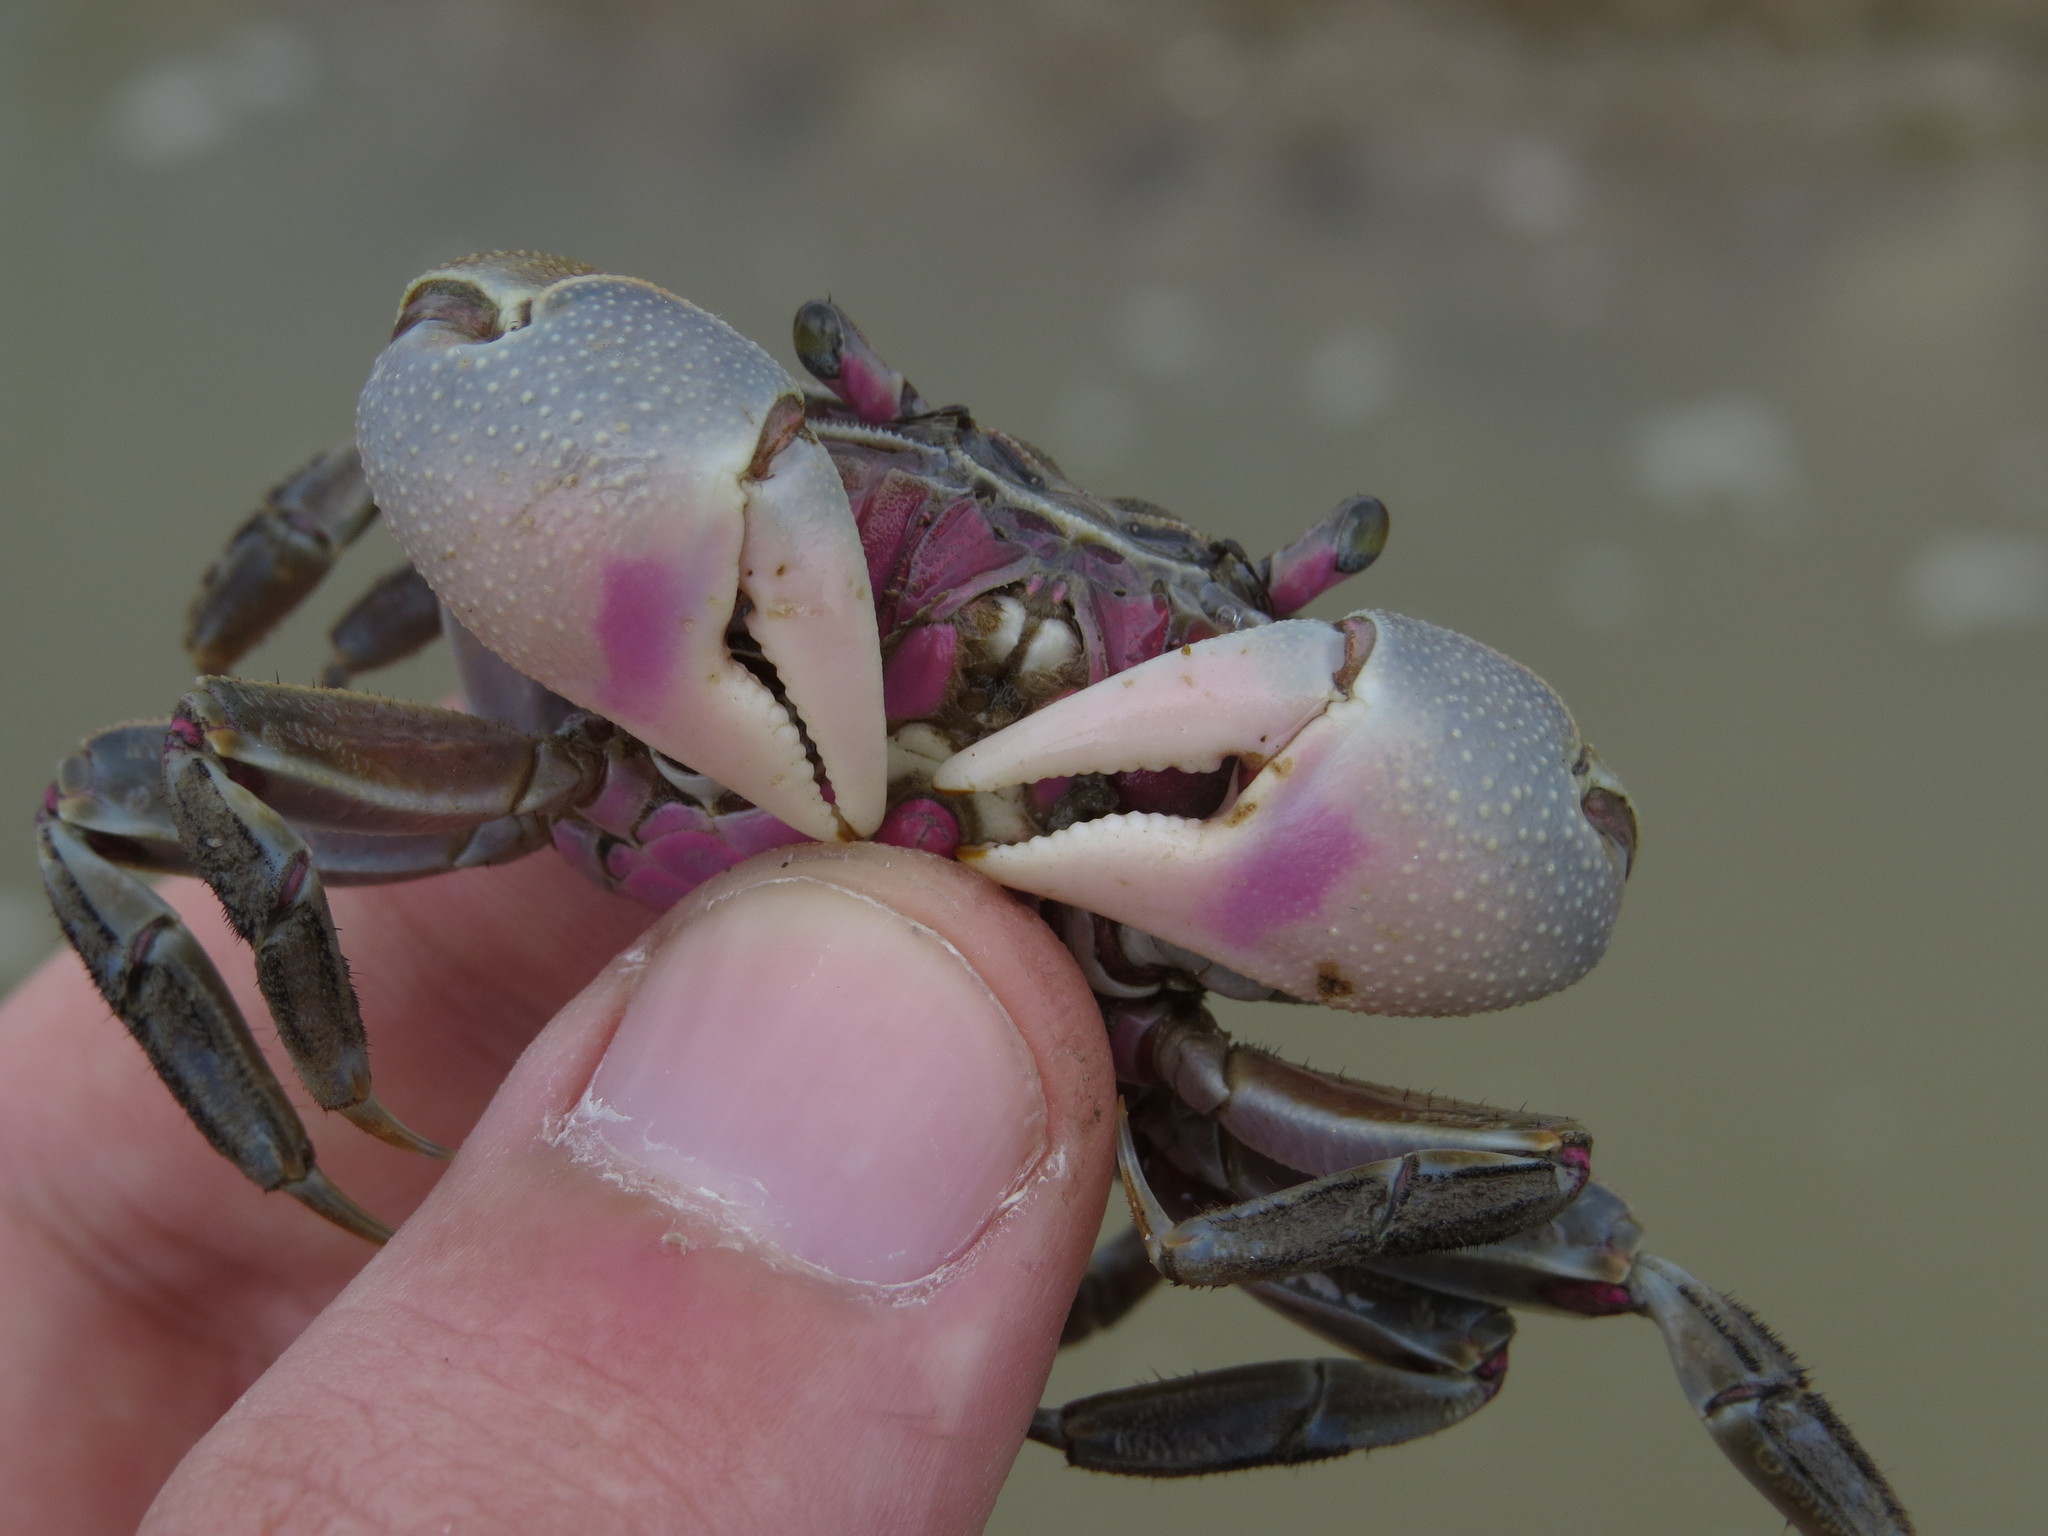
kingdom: Animalia
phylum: Arthropoda
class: Malacostraca
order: Decapoda
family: Varunidae
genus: Neohelice
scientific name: Neohelice granulata
